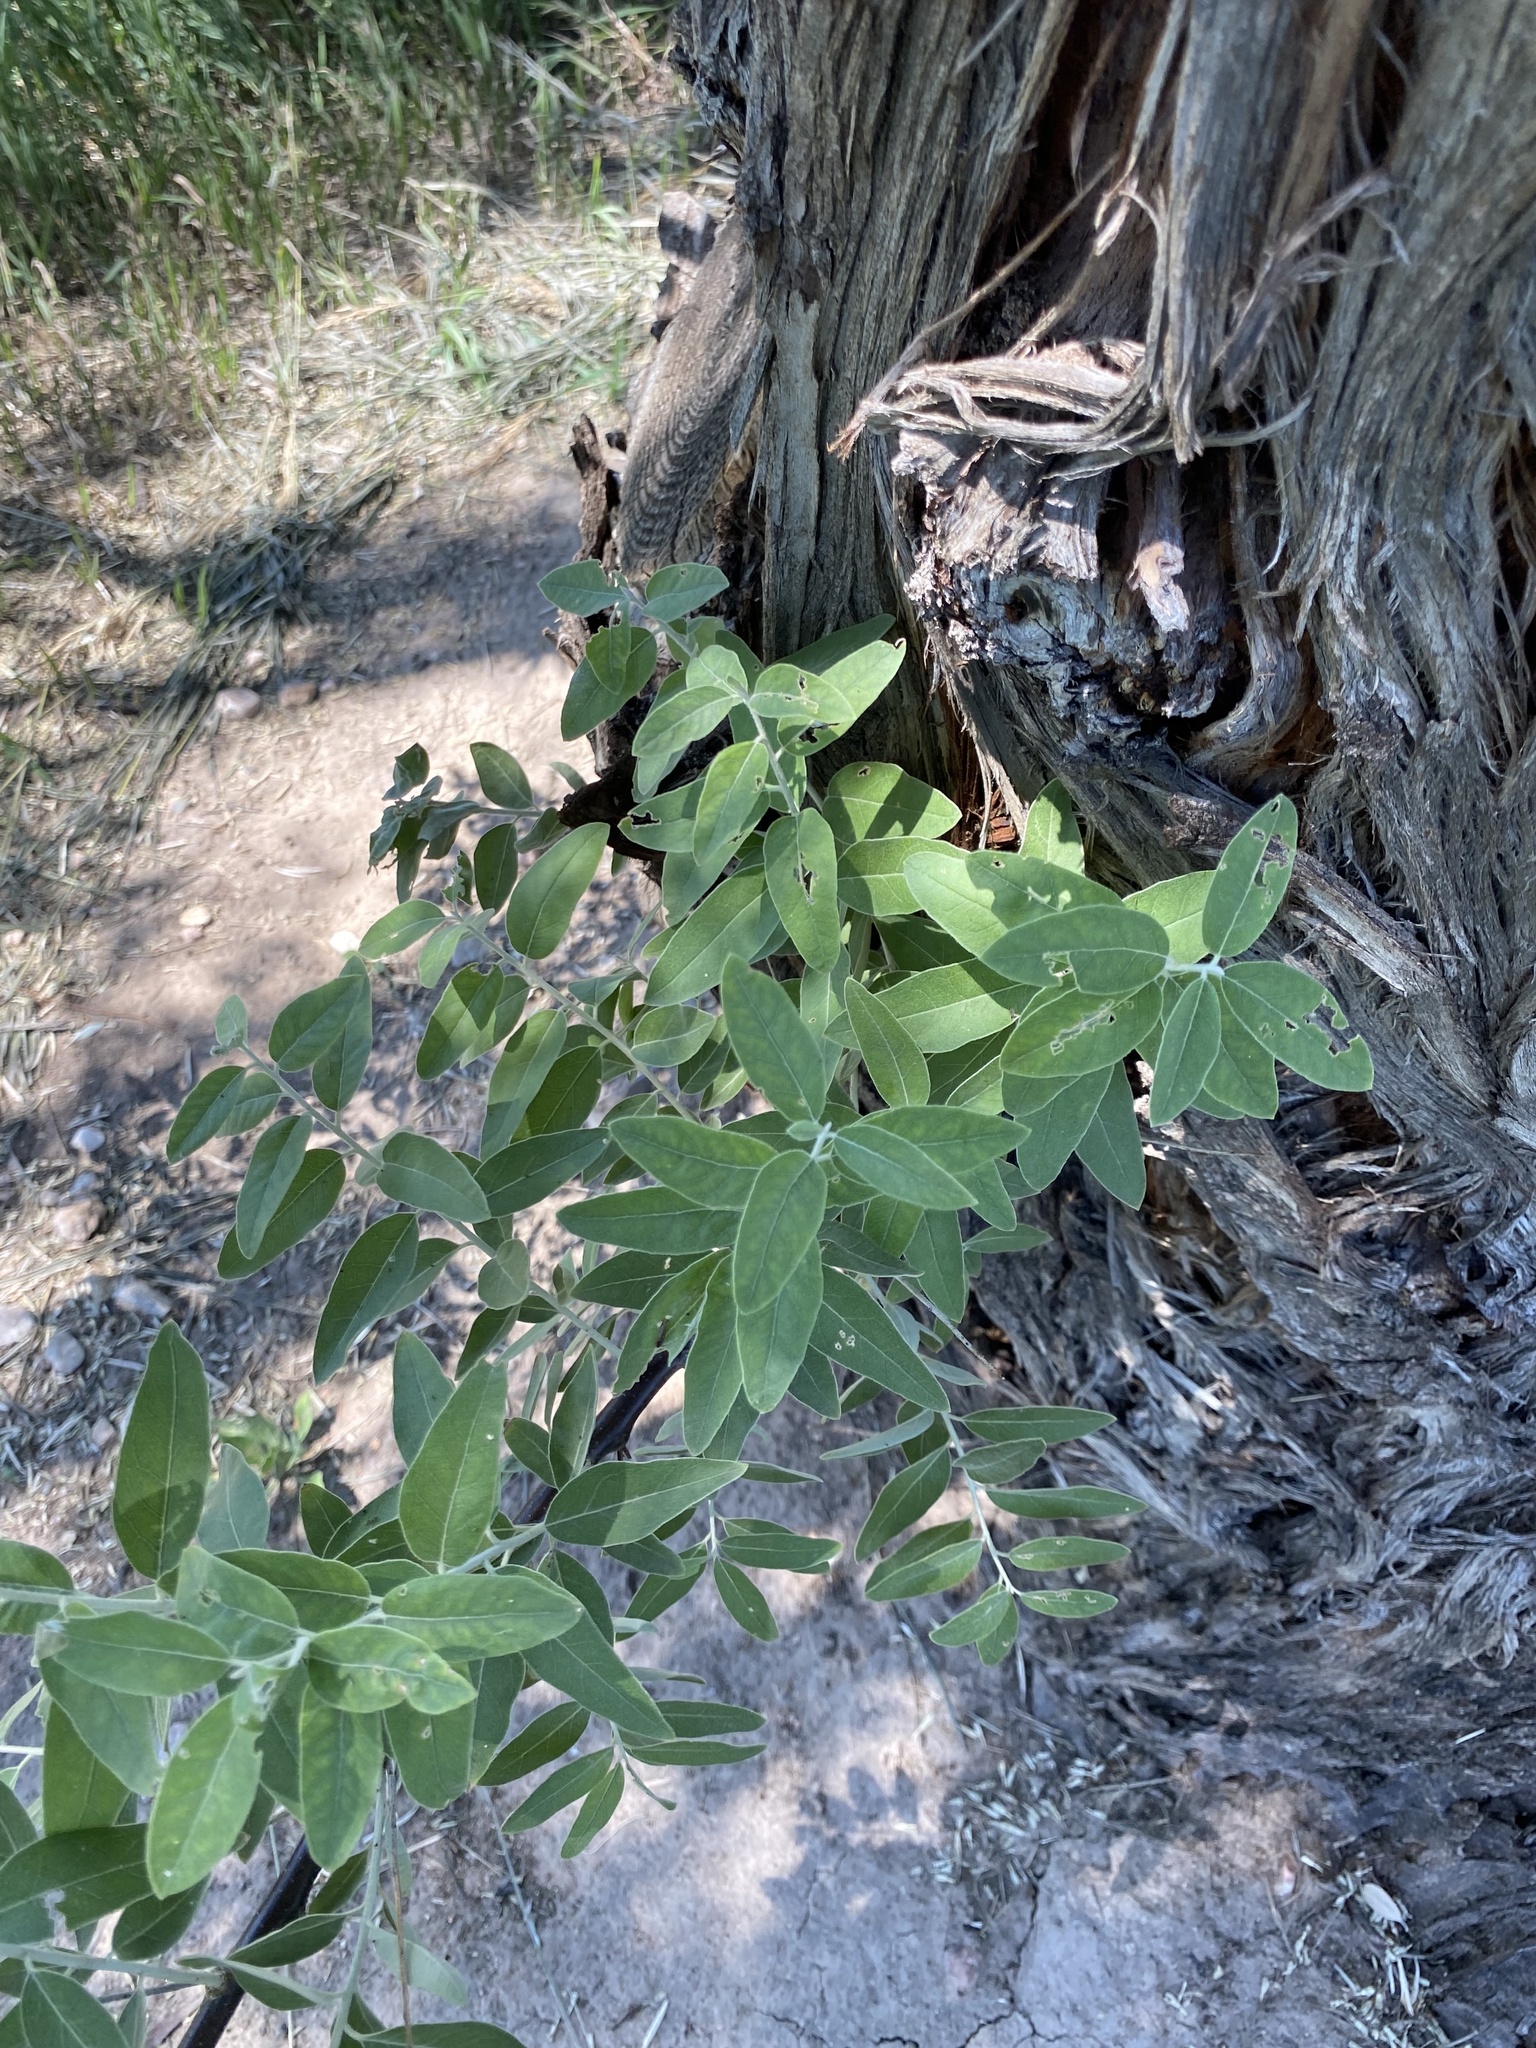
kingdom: Plantae
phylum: Tracheophyta
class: Magnoliopsida
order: Rosales
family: Elaeagnaceae
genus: Elaeagnus
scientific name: Elaeagnus angustifolia
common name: Russian olive
